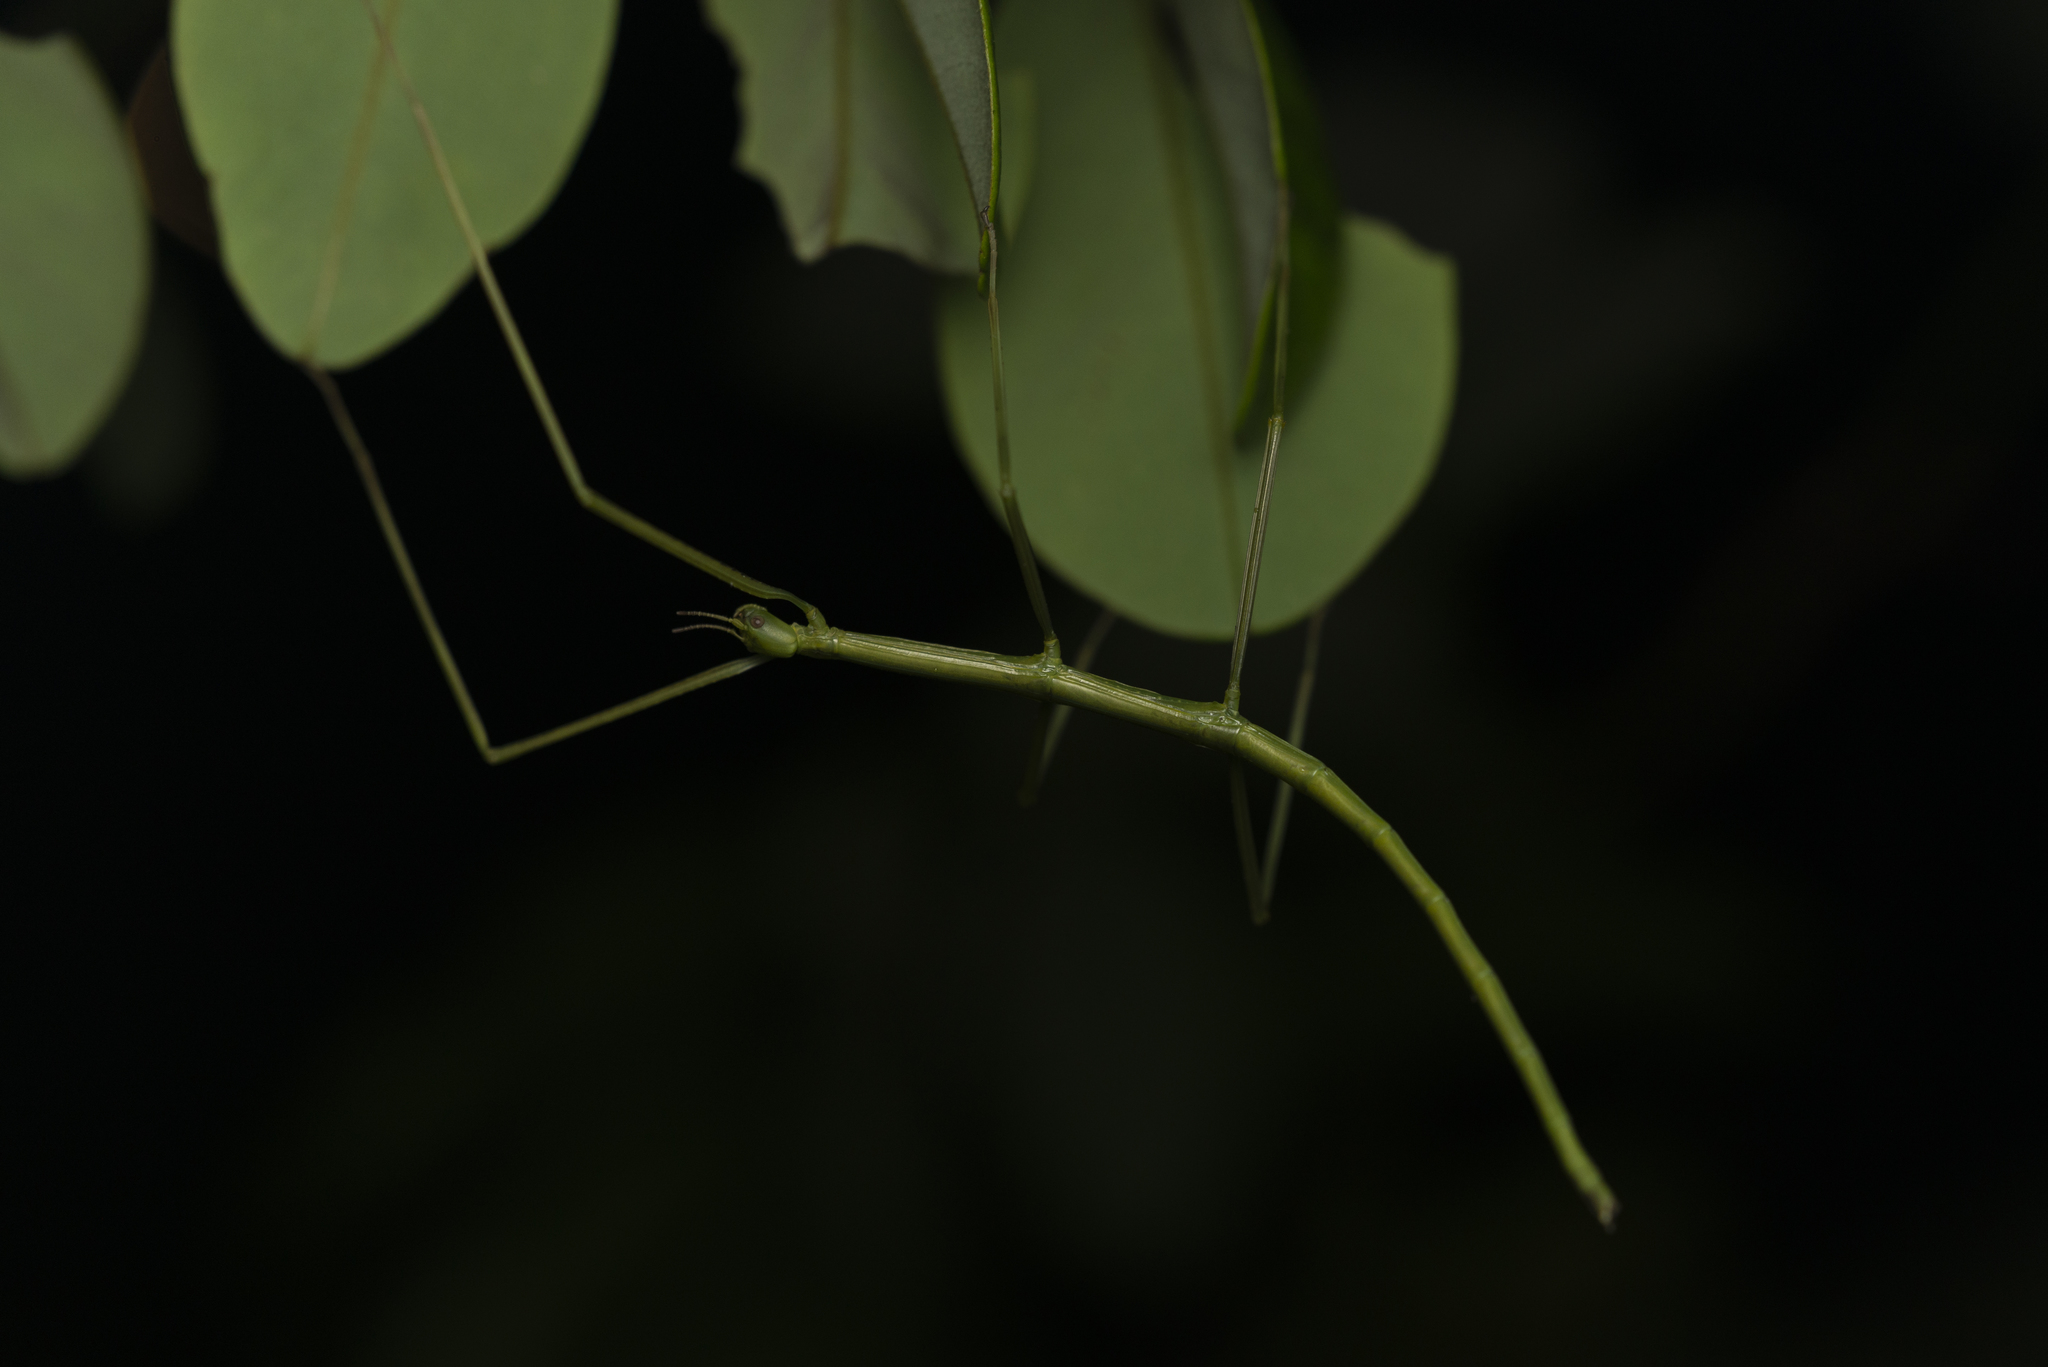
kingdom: Animalia
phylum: Arthropoda
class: Insecta
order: Phasmida
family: Phasmatidae
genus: Ramulus
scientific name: Ramulus caii
